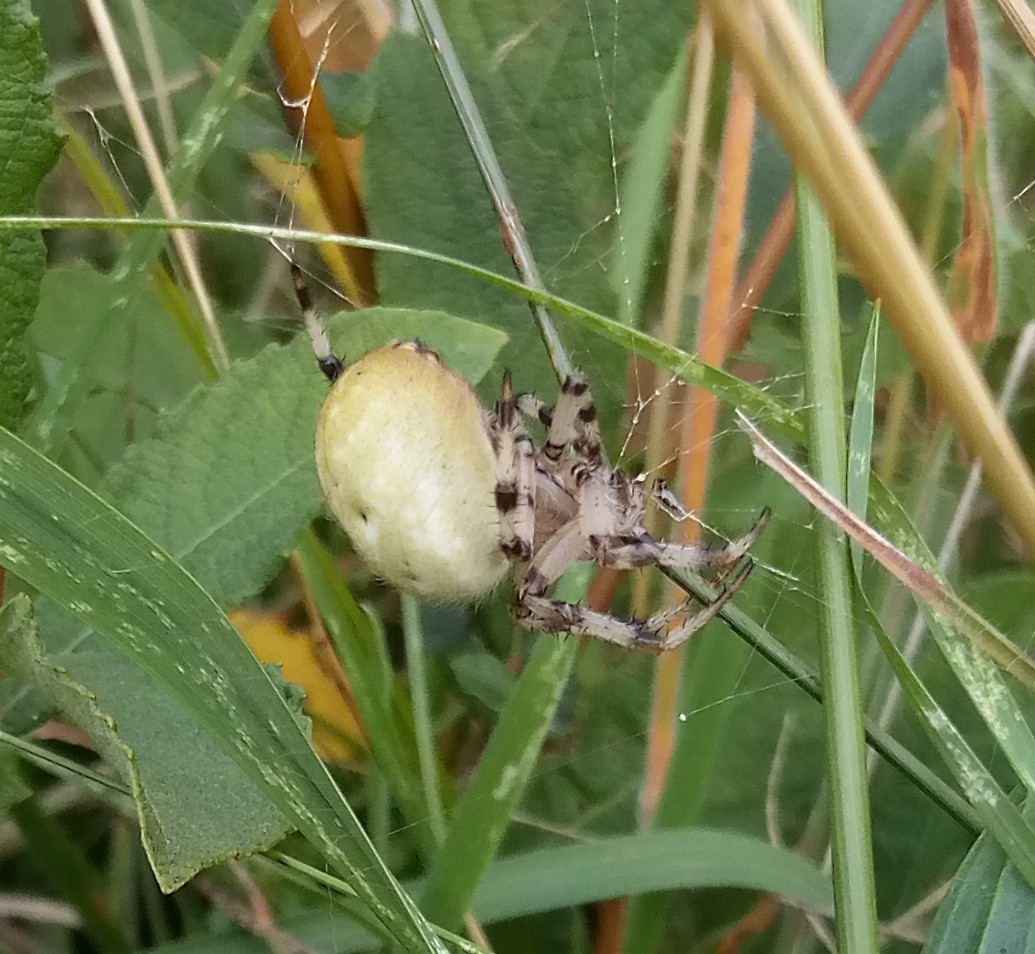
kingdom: Animalia
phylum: Arthropoda
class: Arachnida
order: Araneae
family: Araneidae
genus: Araneus
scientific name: Araneus quadratus
